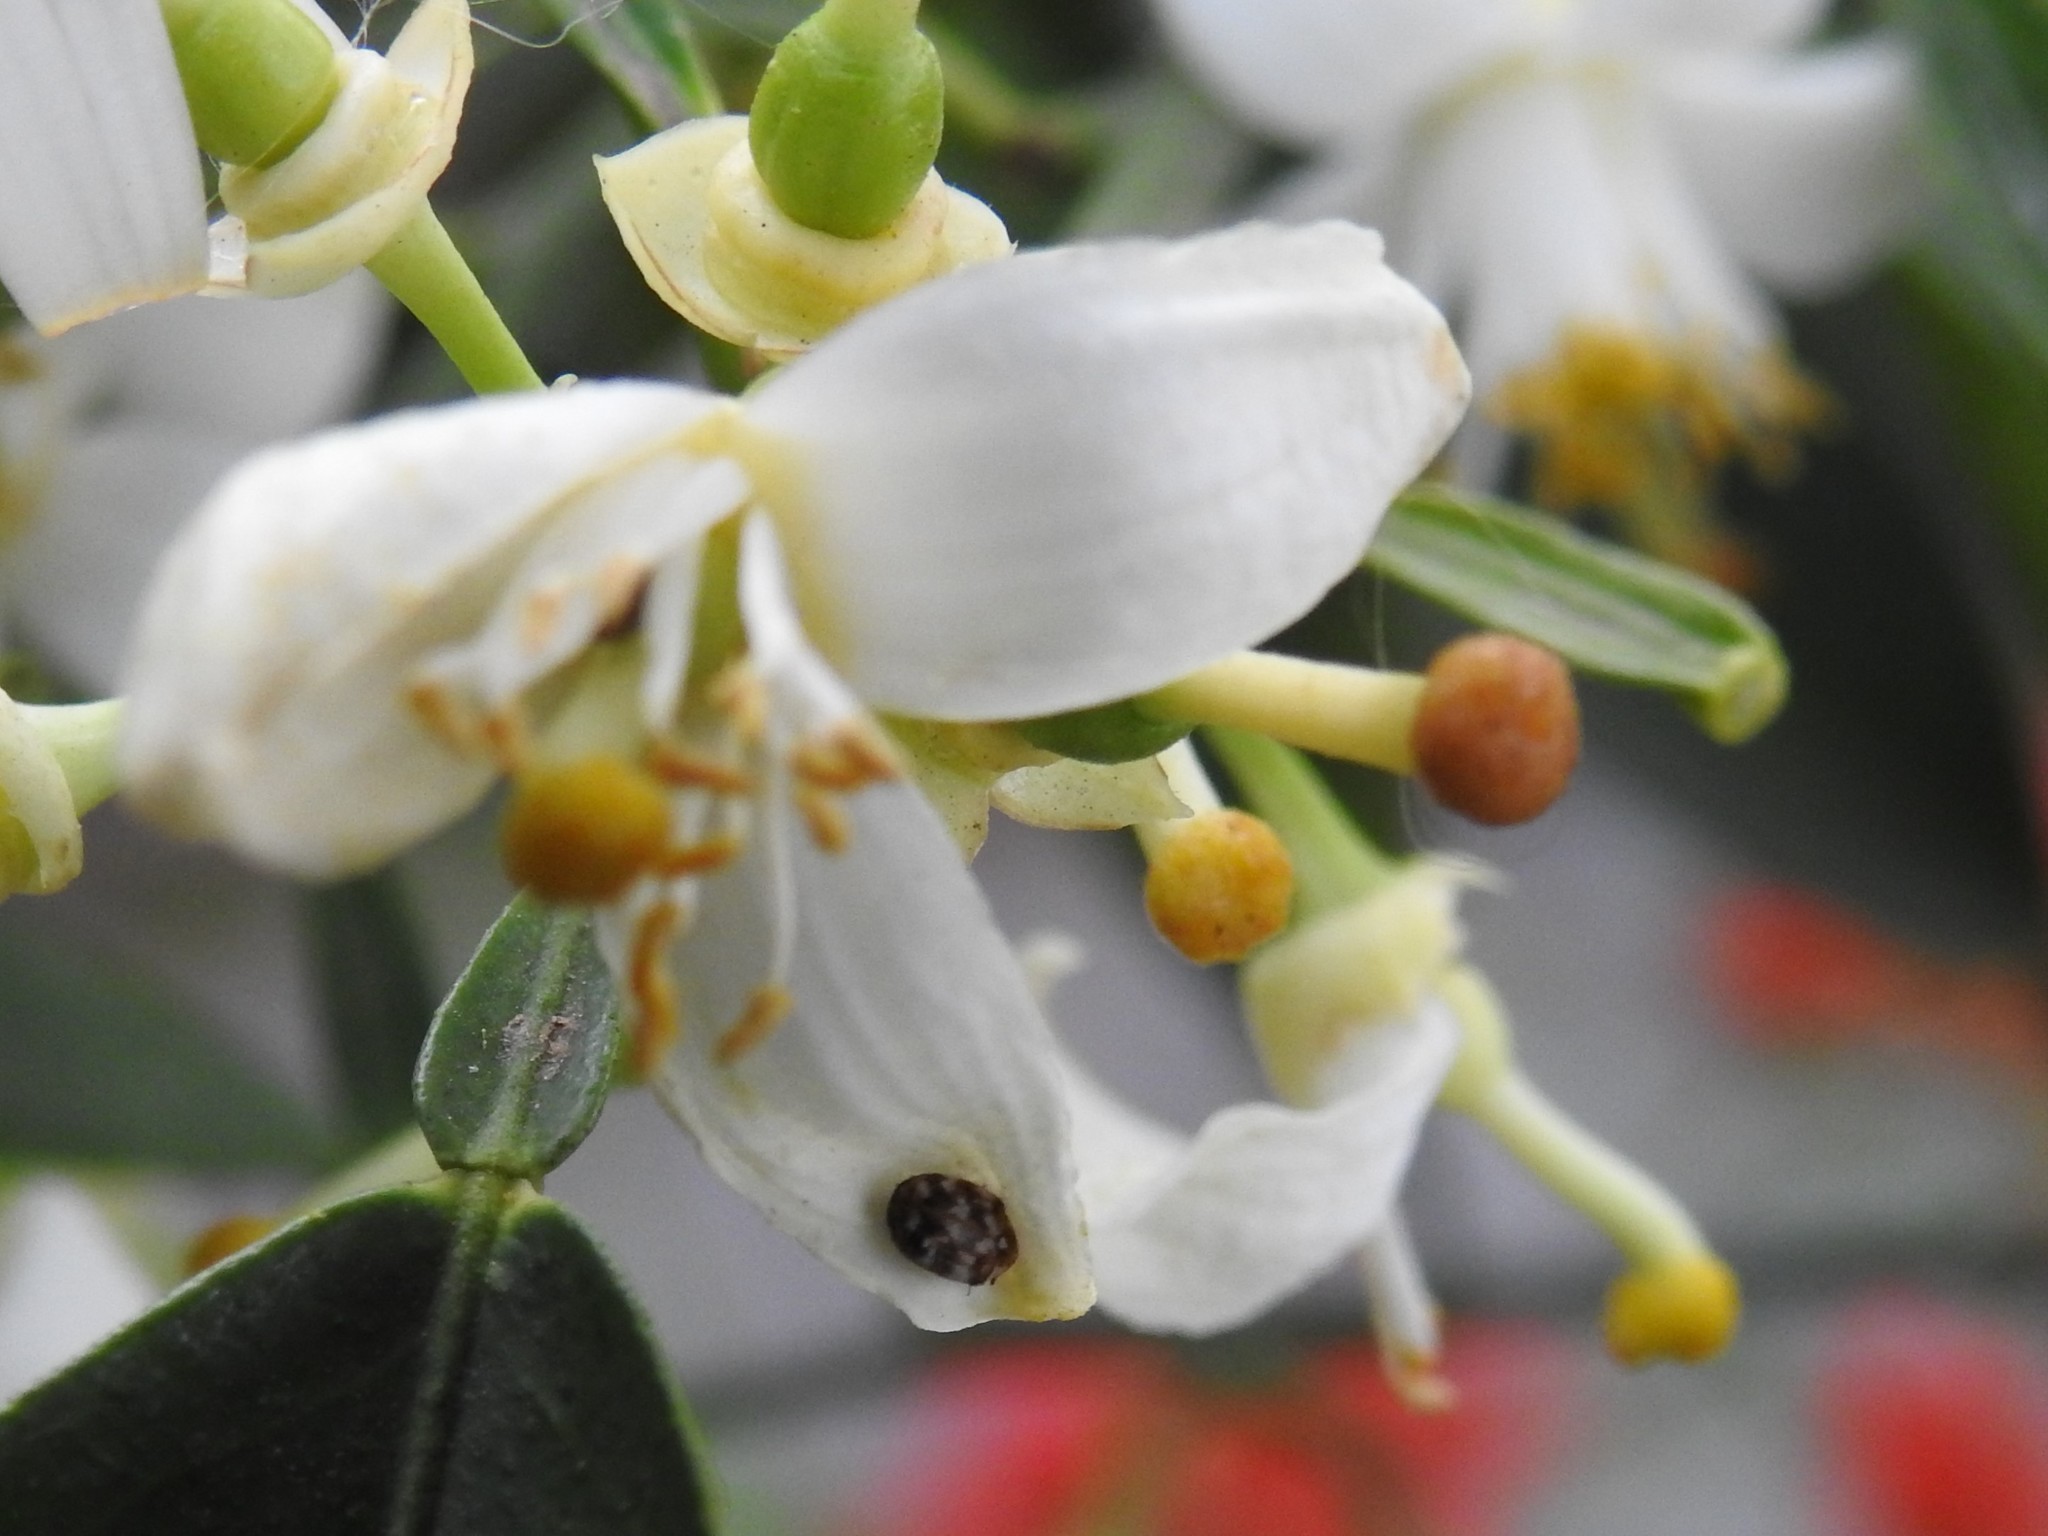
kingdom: Animalia
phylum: Arthropoda
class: Insecta
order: Coleoptera
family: Dermestidae
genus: Anthrenus
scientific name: Anthrenus verbasci
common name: Varied carpet beetle
